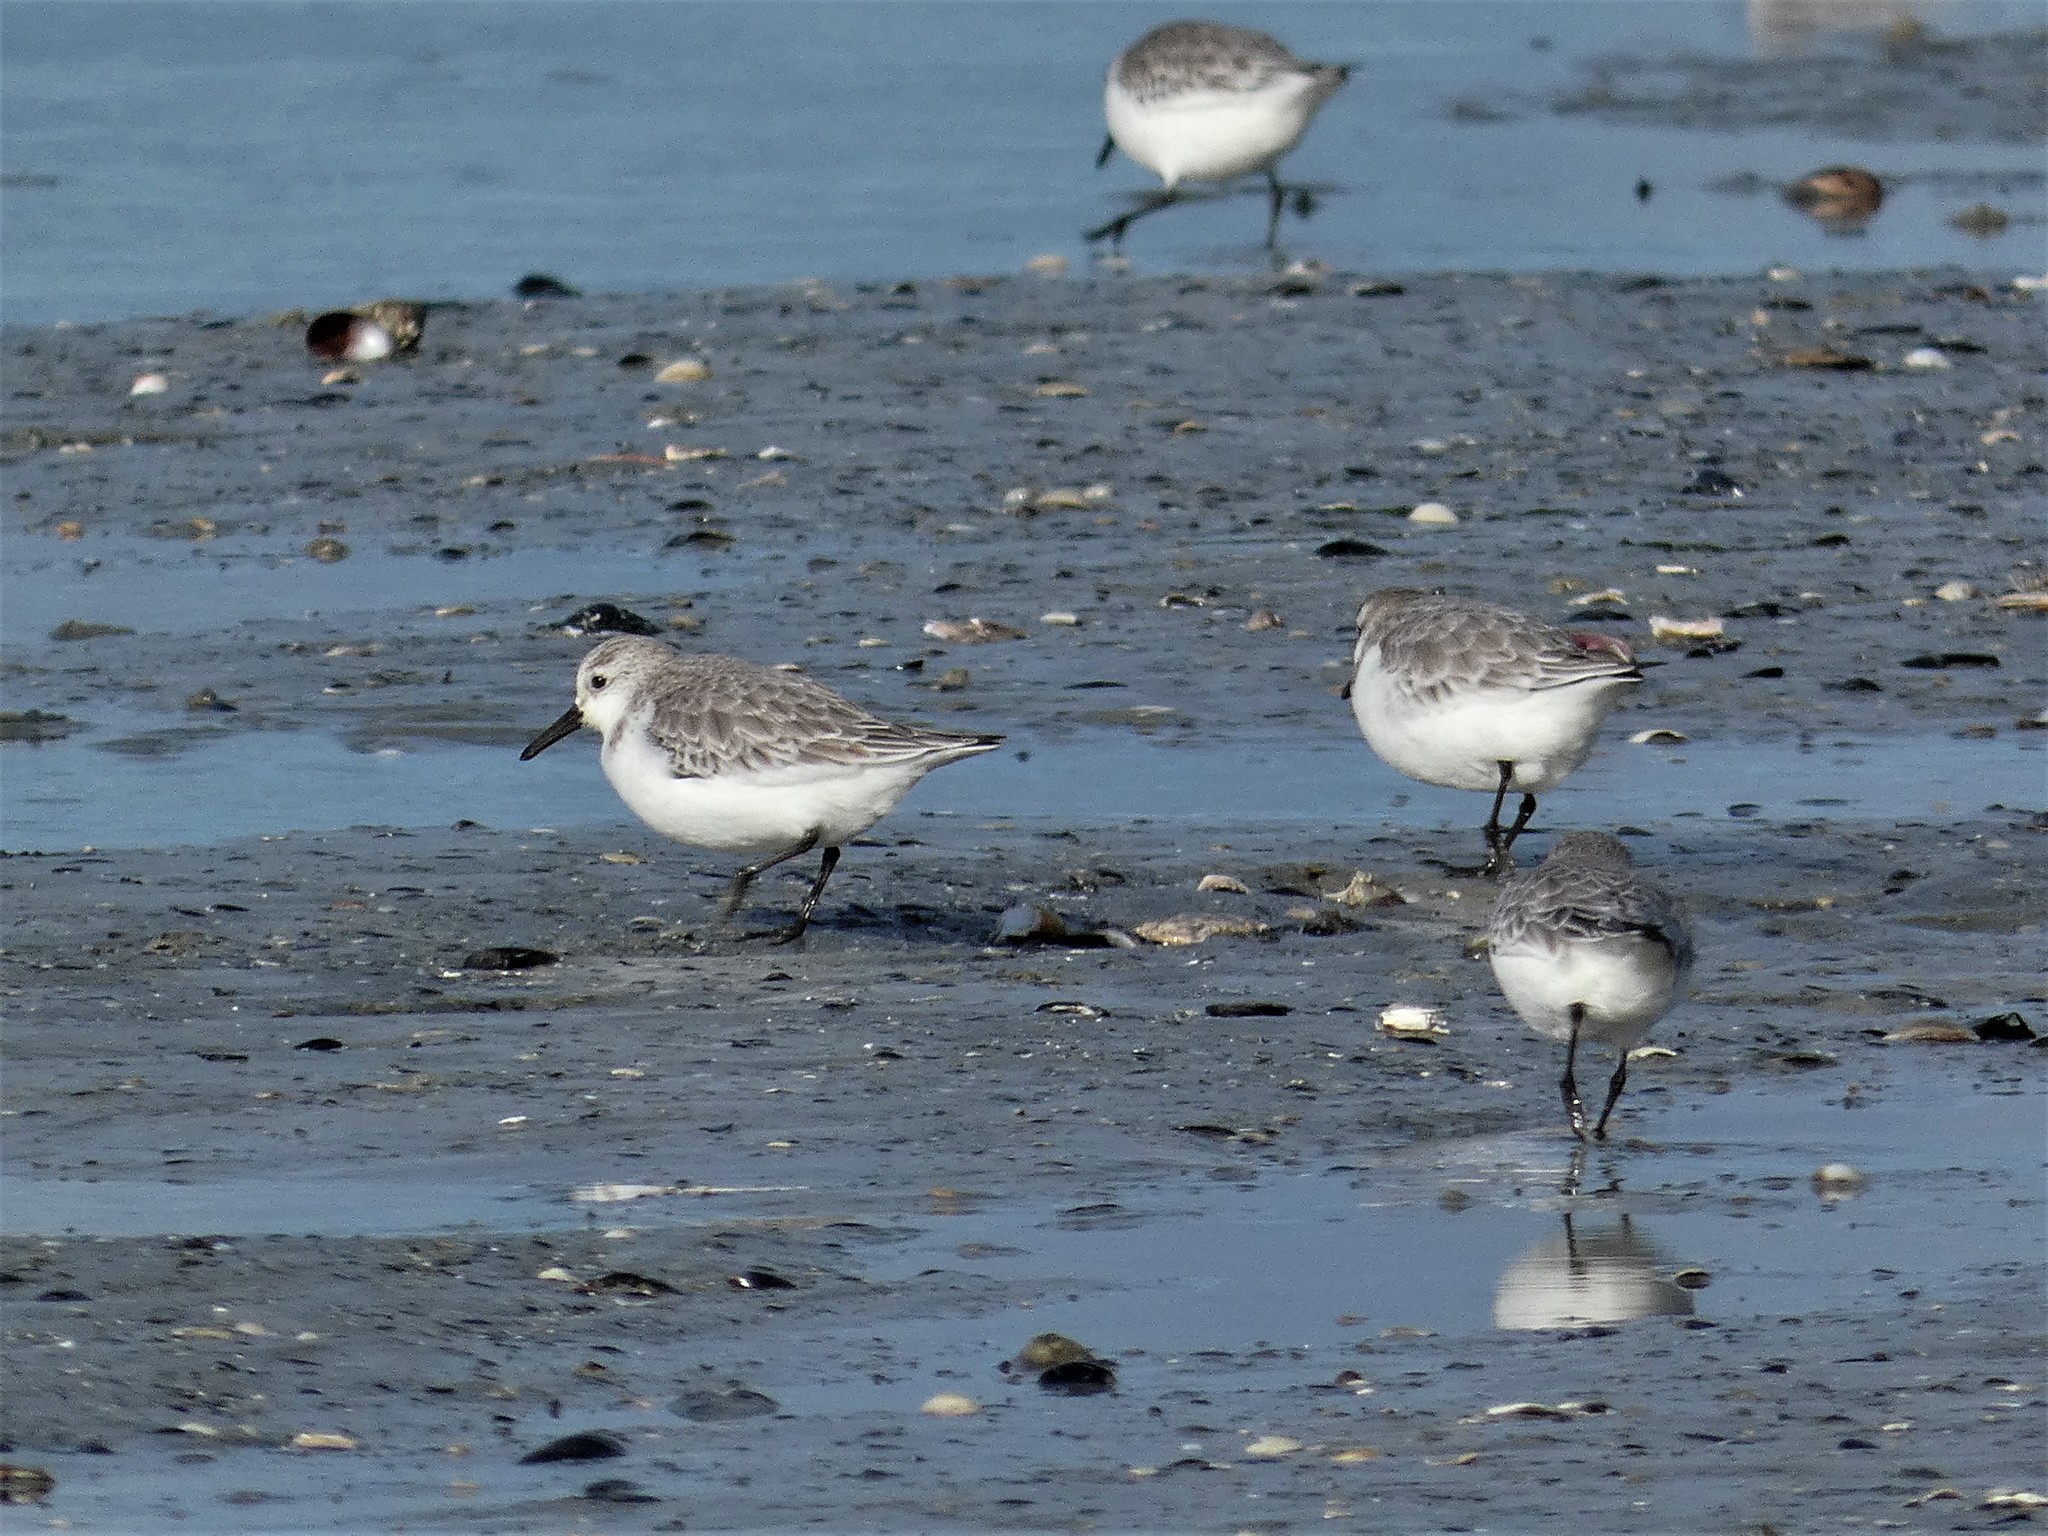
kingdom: Animalia
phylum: Chordata
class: Aves
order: Charadriiformes
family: Scolopacidae
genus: Calidris
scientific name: Calidris alba
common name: Sanderling
